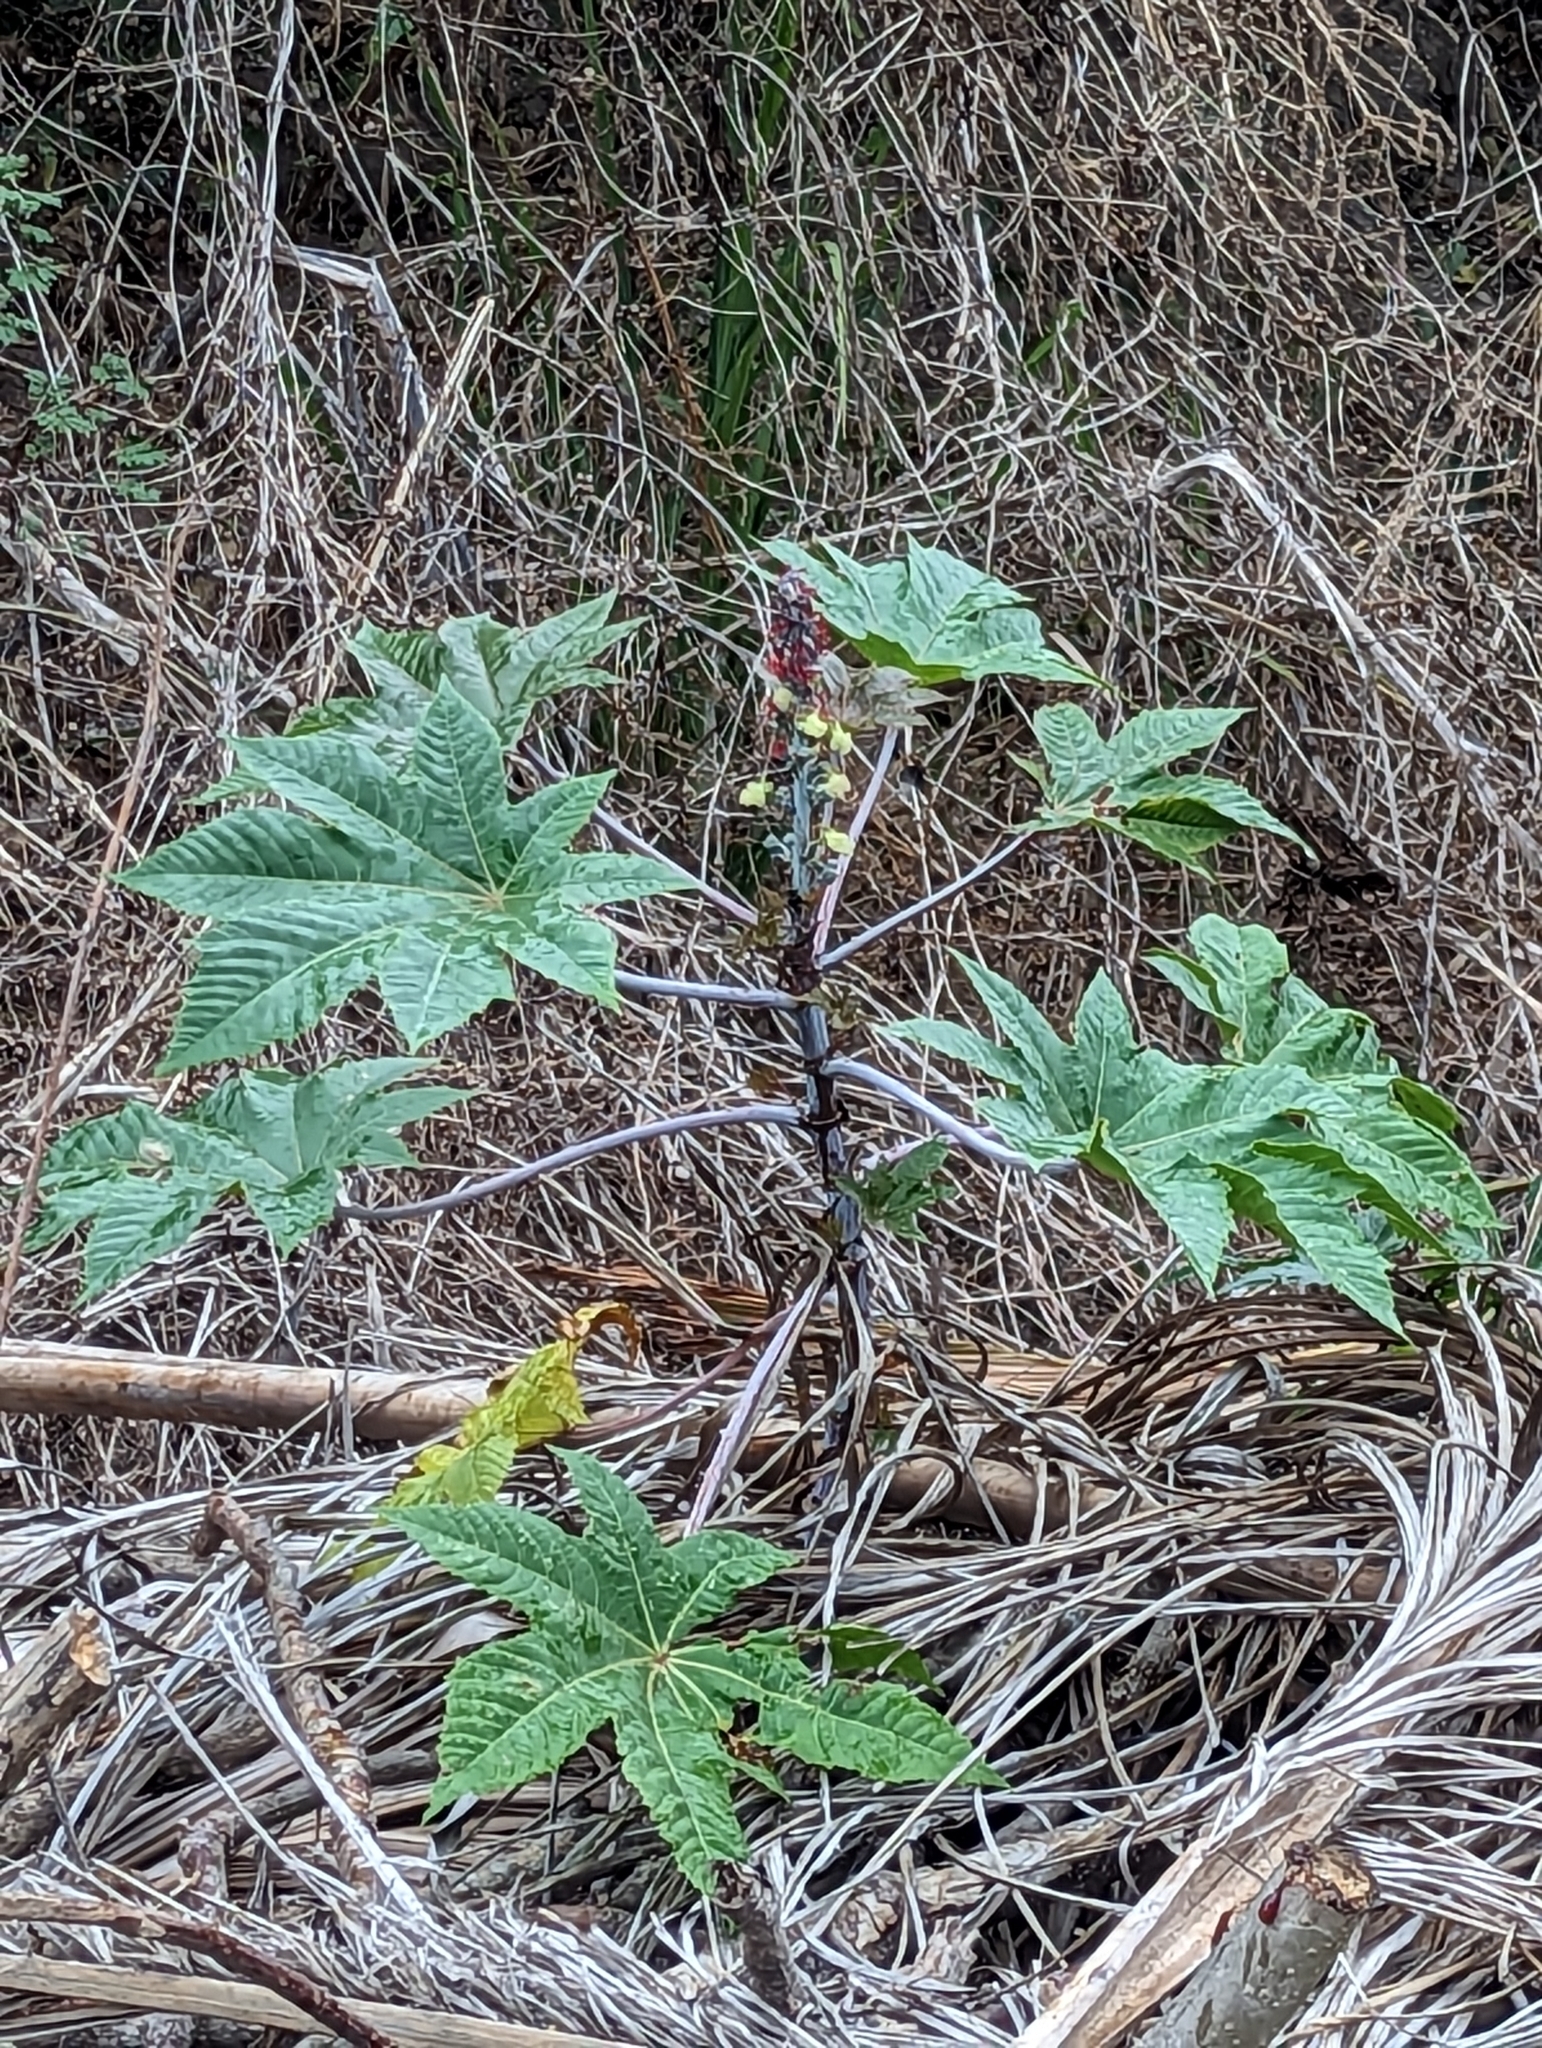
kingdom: Plantae
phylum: Tracheophyta
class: Magnoliopsida
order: Malpighiales
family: Euphorbiaceae
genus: Ricinus
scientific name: Ricinus communis
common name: Castor-oil-plant
